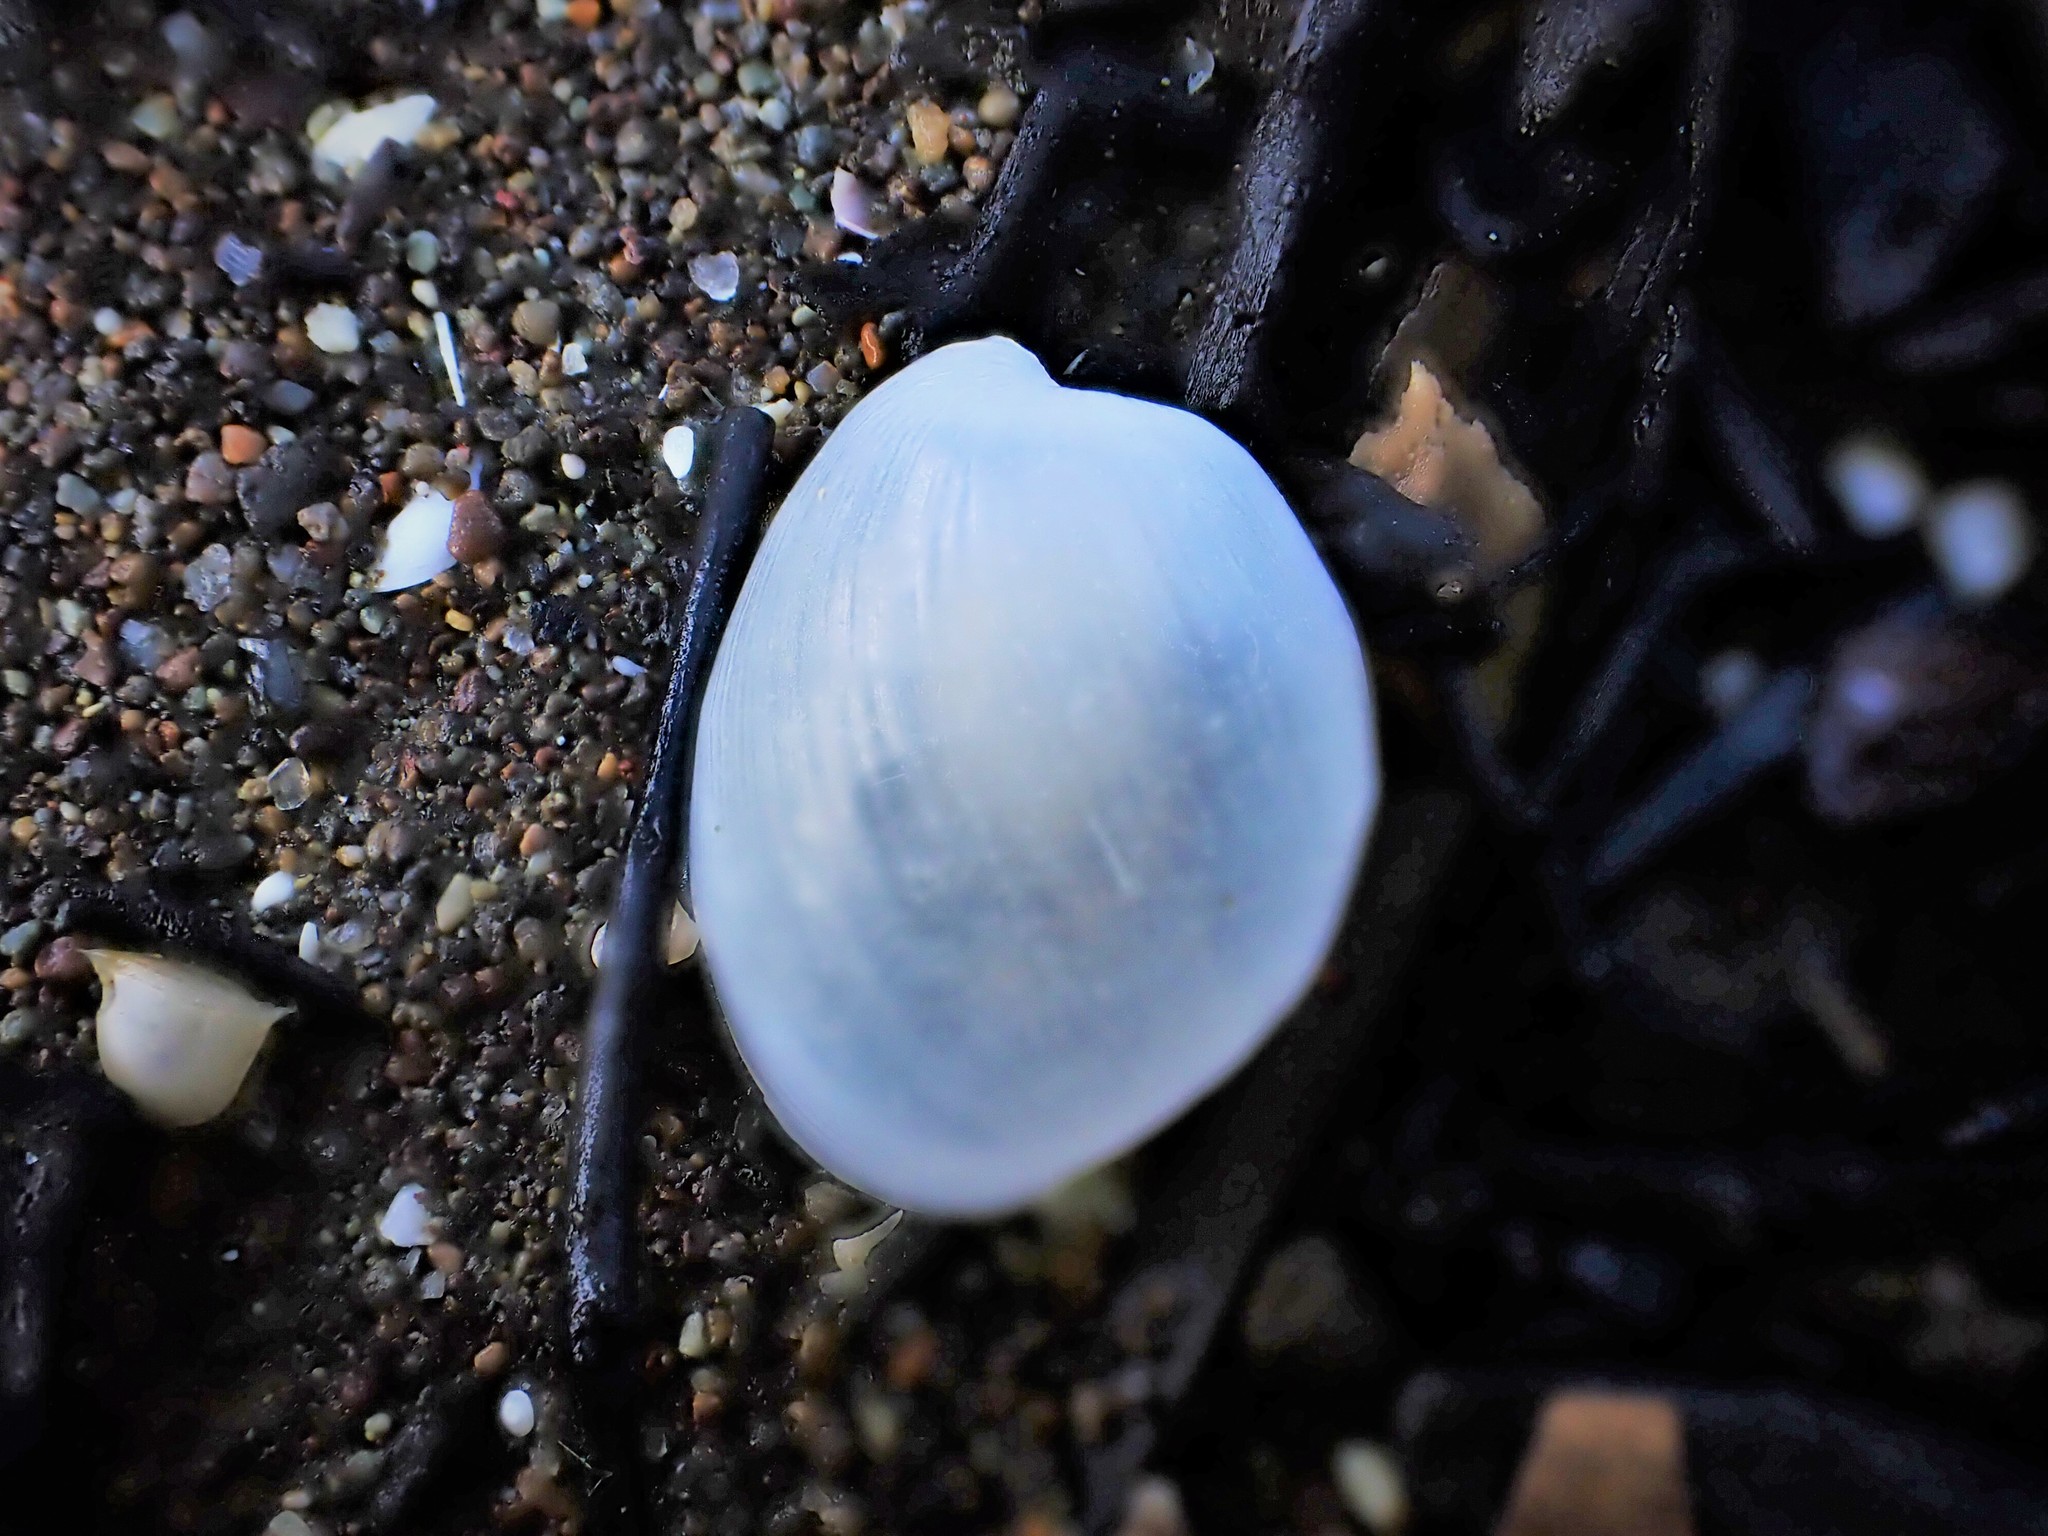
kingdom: Animalia
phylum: Mollusca
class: Gastropoda
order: Cephalaspidea
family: Haminoeidae
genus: Papawera
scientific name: Papawera zelandiae
